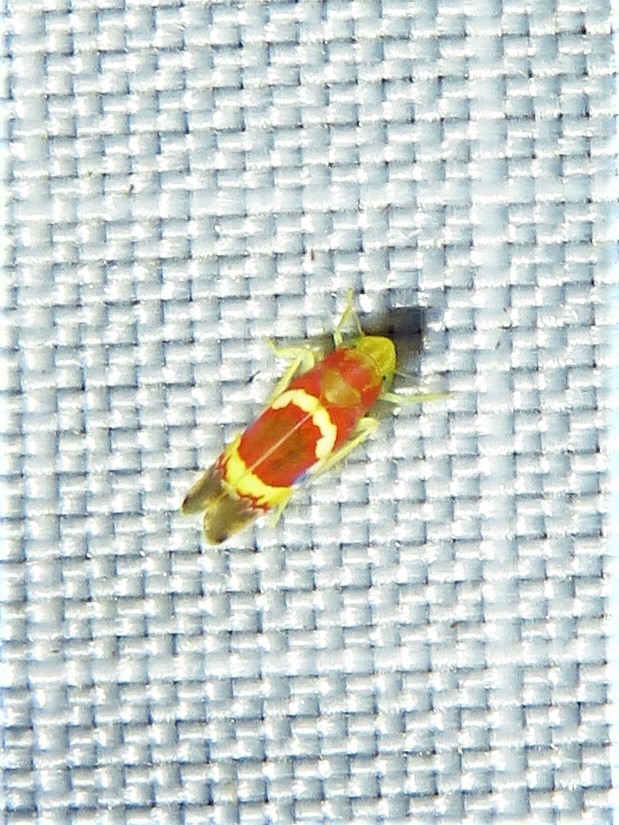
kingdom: Animalia
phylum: Arthropoda
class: Insecta
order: Hemiptera
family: Cicadellidae
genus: Erythroneura
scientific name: Erythroneura vitis
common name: Grapevine leafhopper
